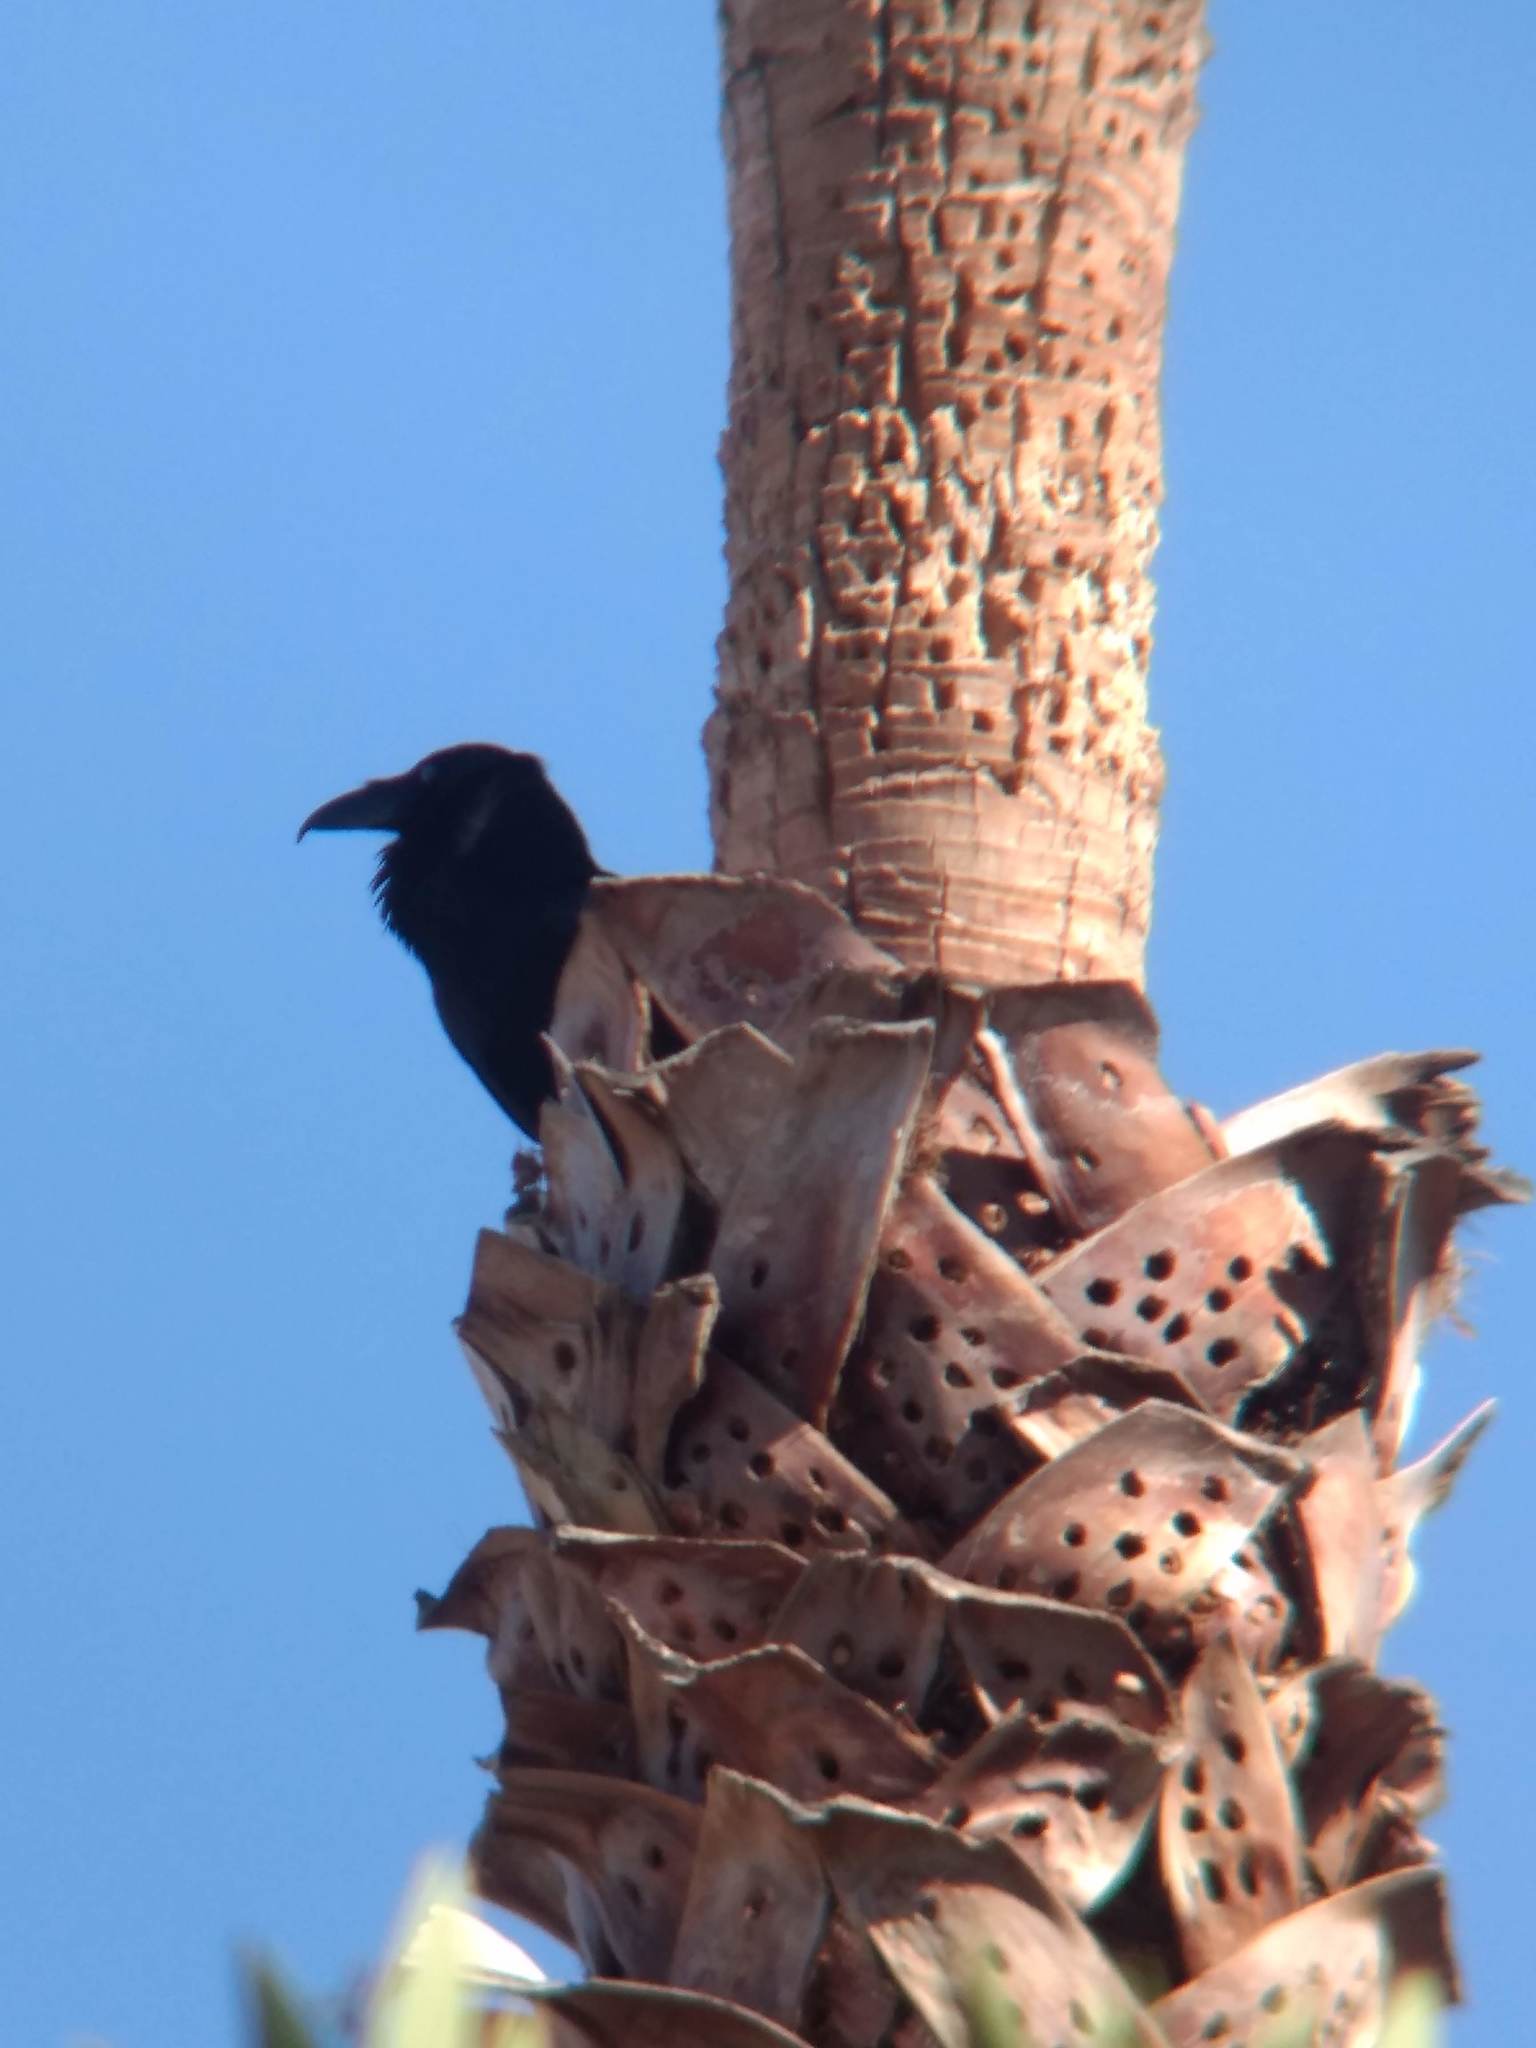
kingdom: Animalia
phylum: Chordata
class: Aves
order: Passeriformes
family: Corvidae
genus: Corvus
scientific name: Corvus corax
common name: Common raven
